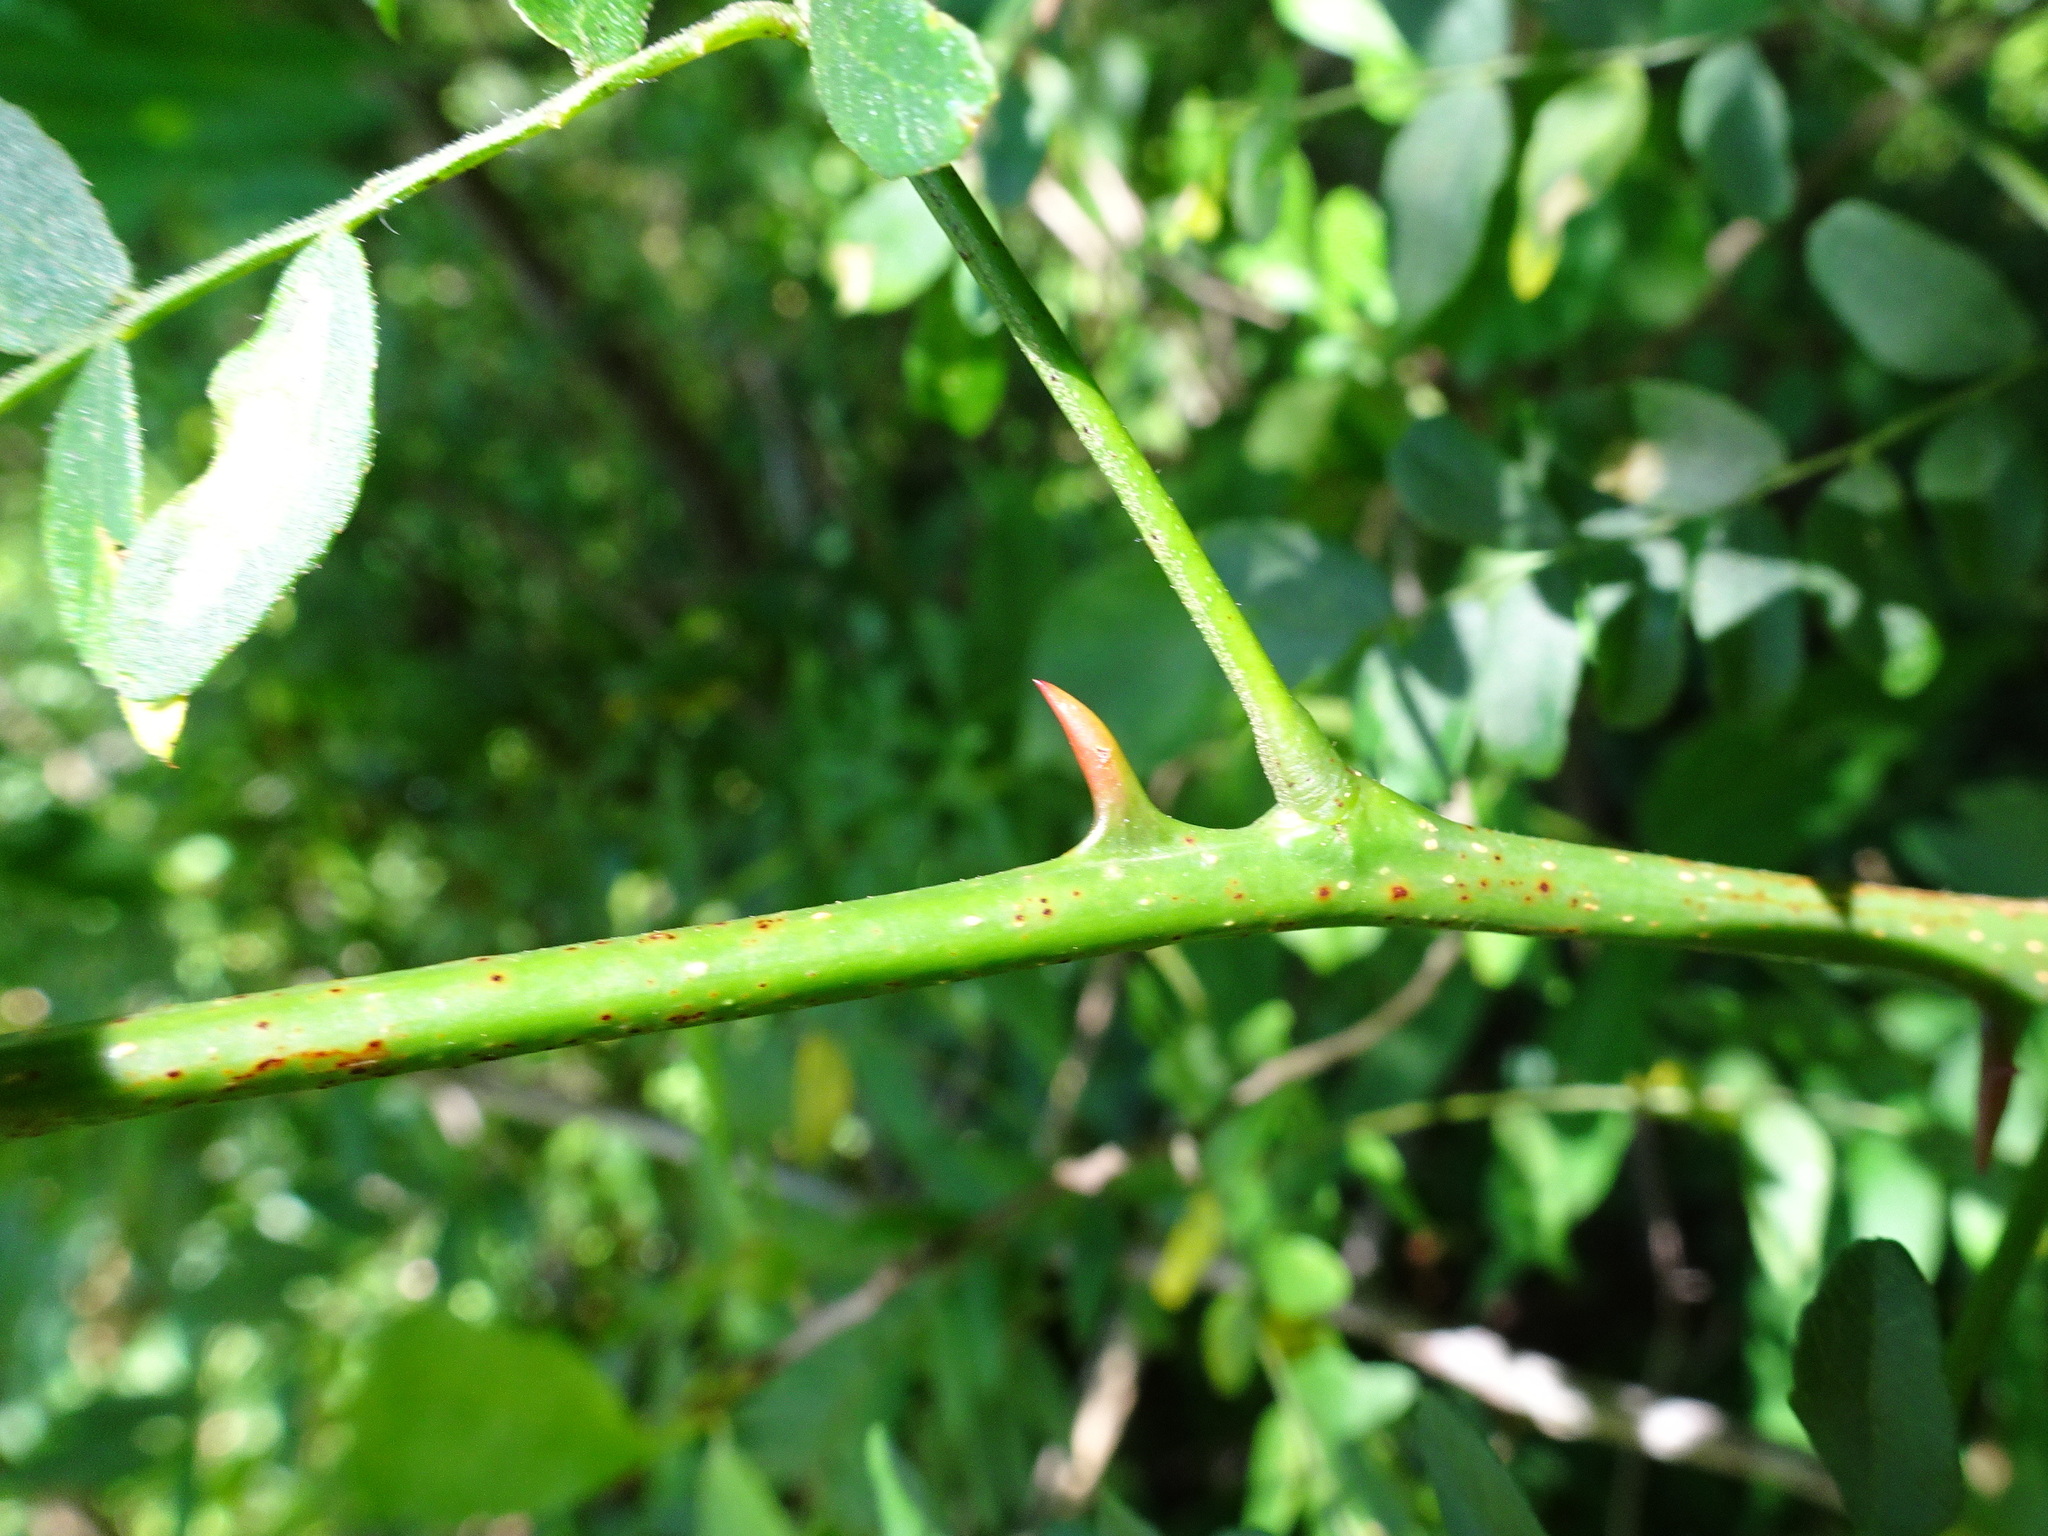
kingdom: Plantae
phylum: Tracheophyta
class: Magnoliopsida
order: Fabales
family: Fabaceae
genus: Gleditsia
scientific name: Gleditsia triacanthos
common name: Common honeylocust
